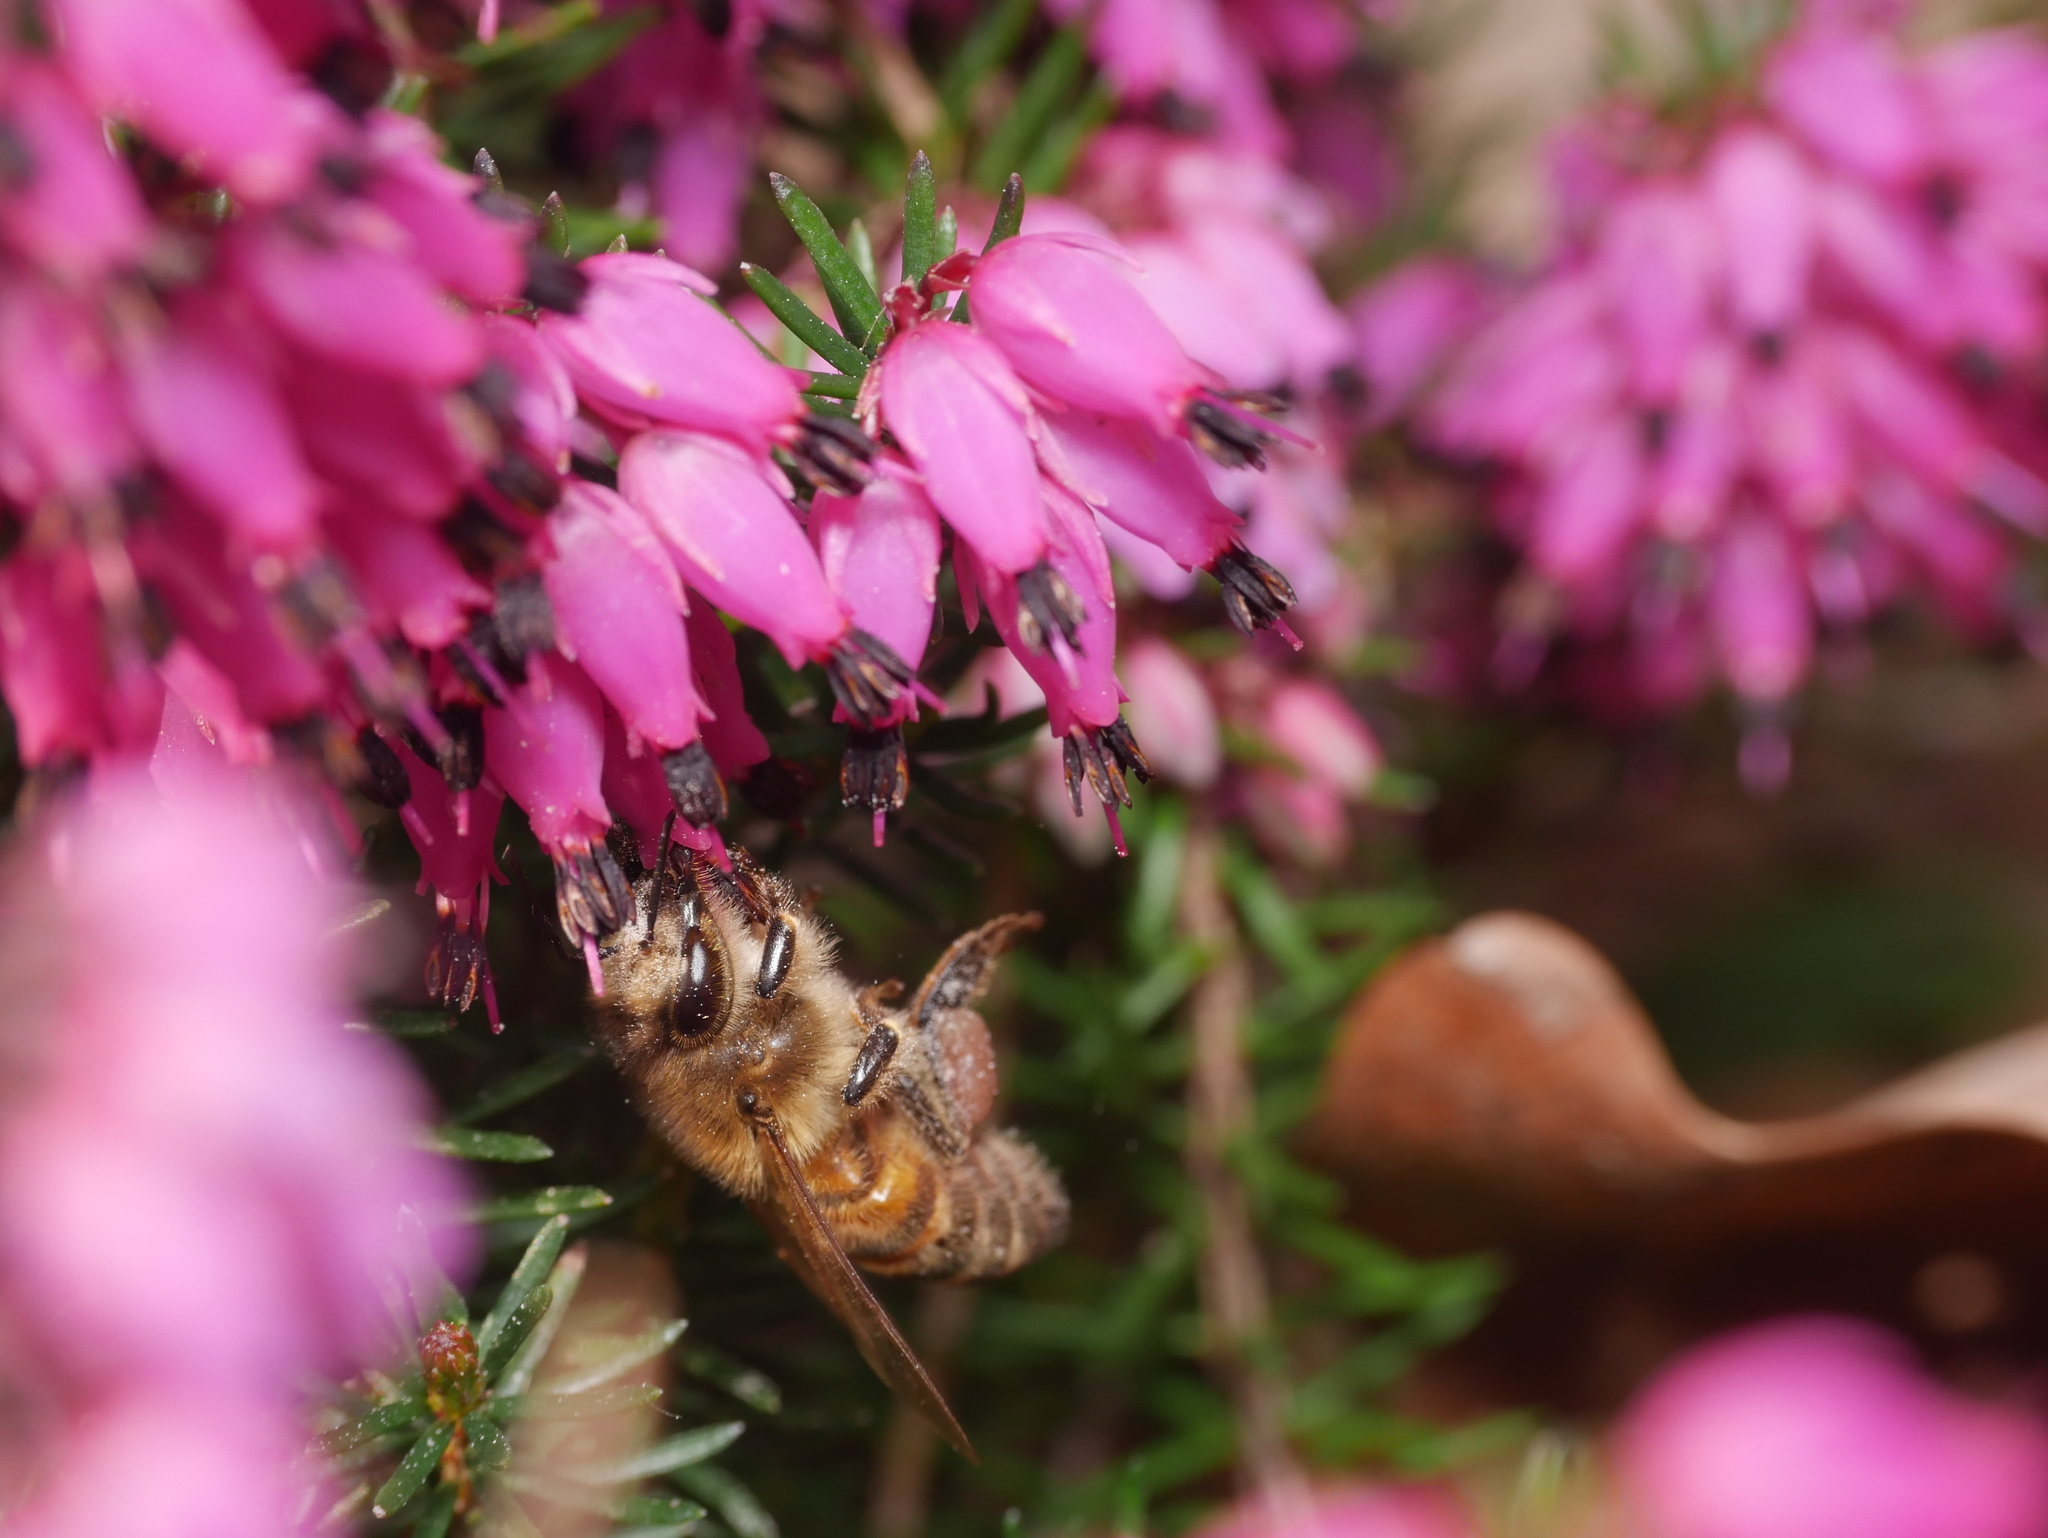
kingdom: Animalia
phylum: Arthropoda
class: Insecta
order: Hymenoptera
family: Apidae
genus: Apis
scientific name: Apis mellifera
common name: Honey bee
